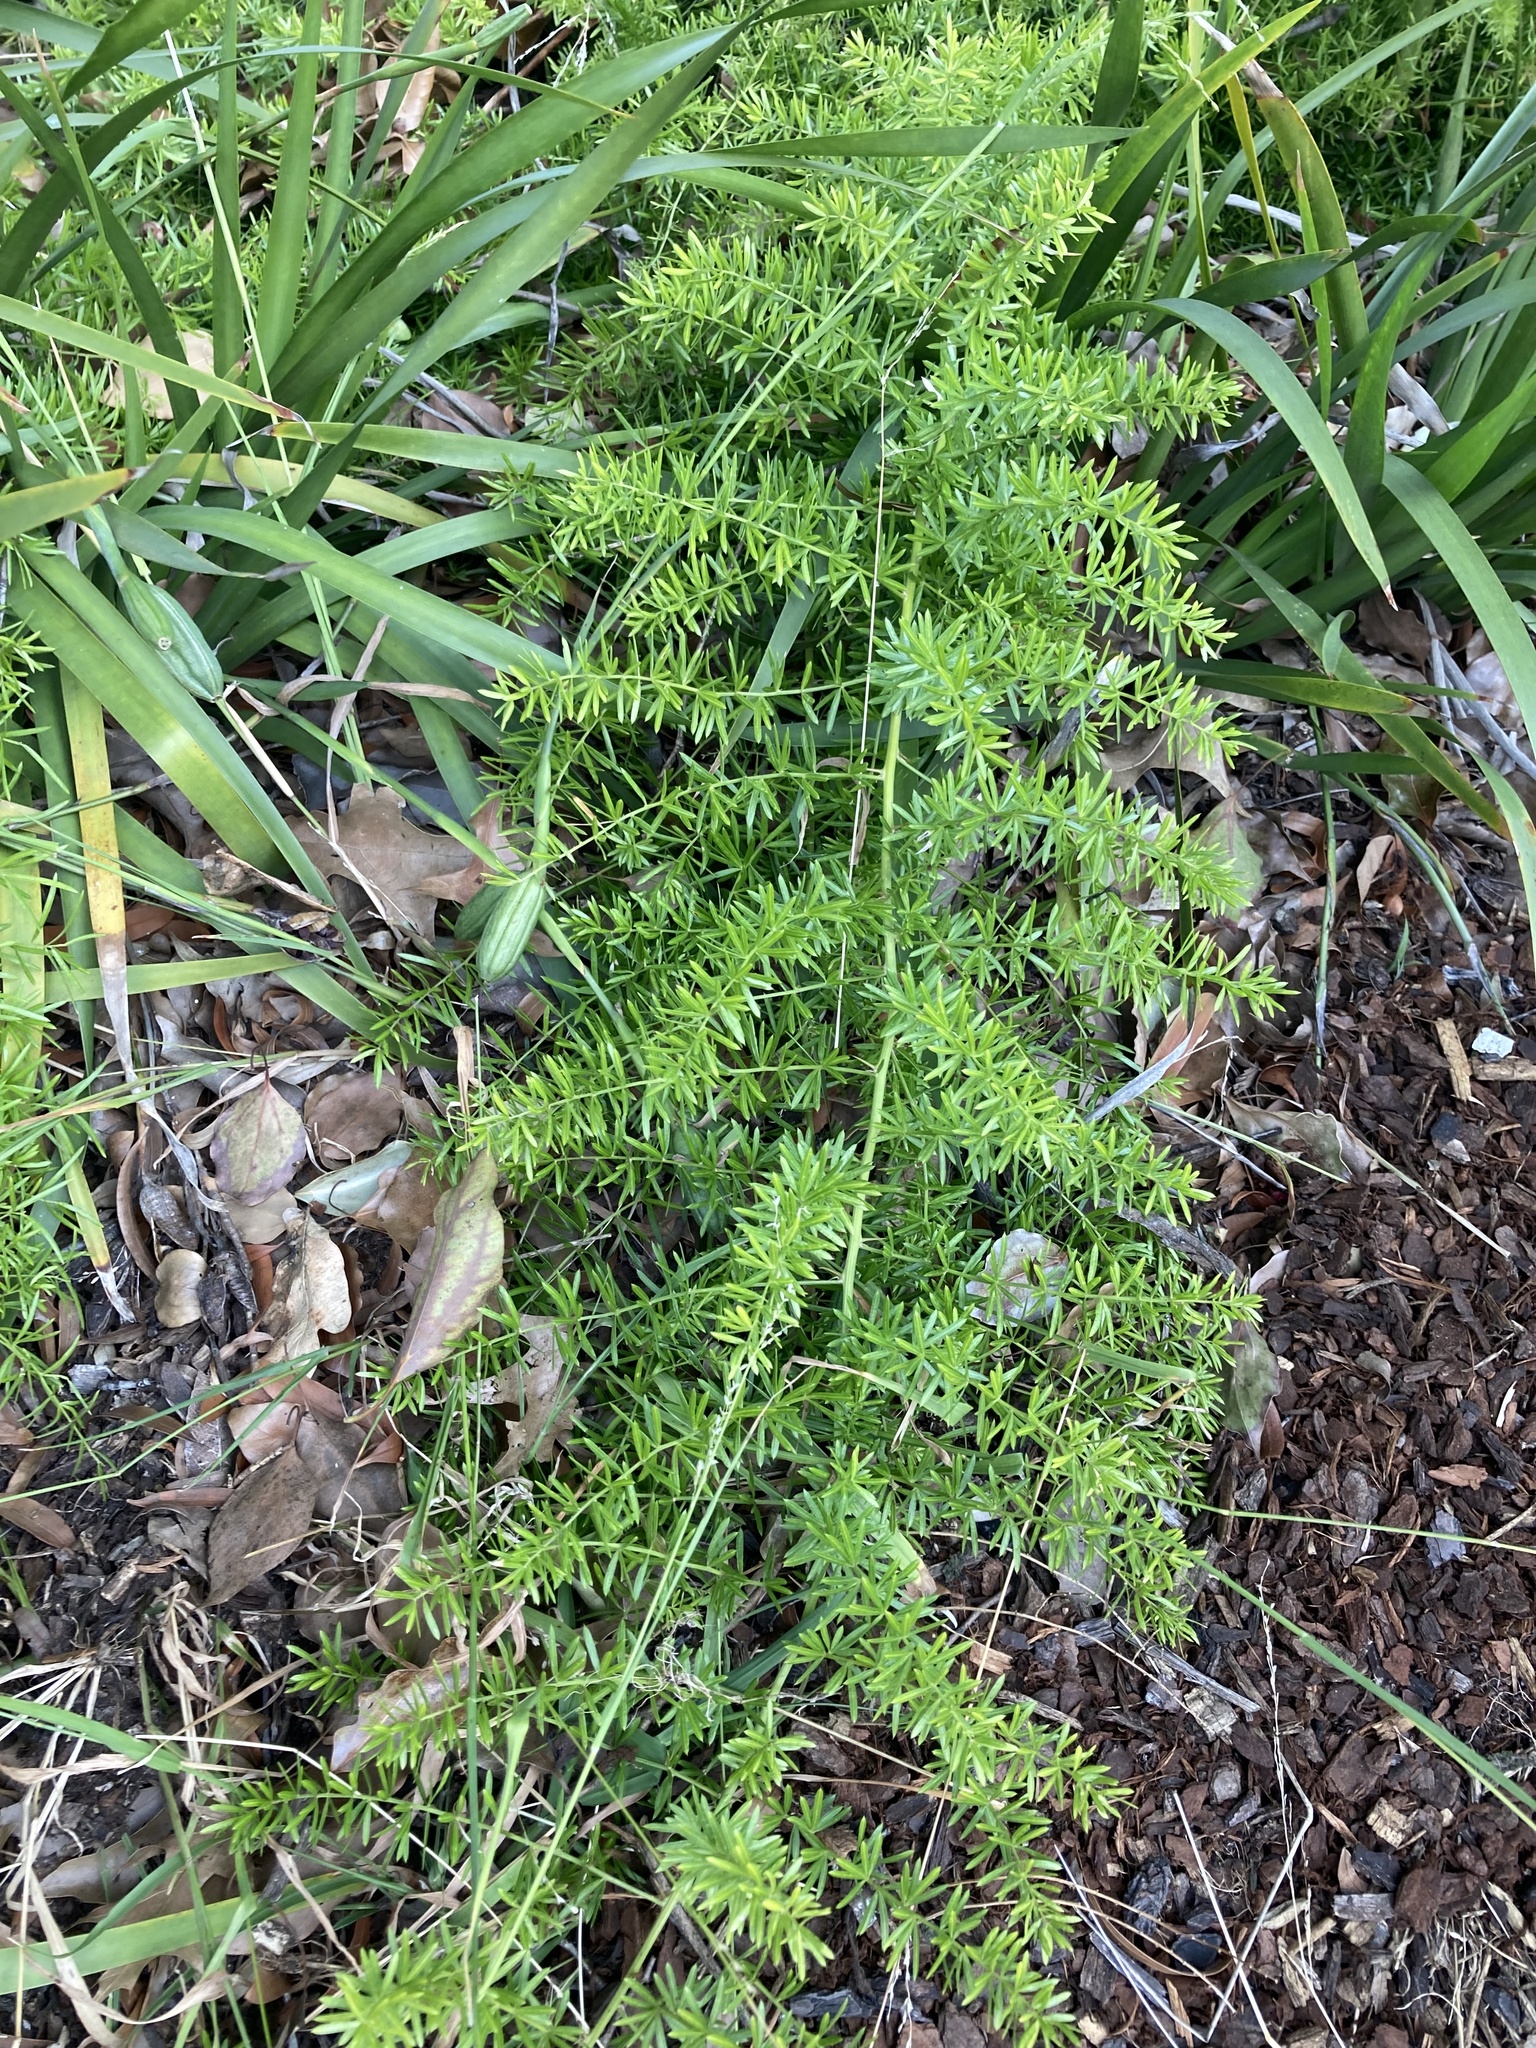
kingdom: Plantae
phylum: Tracheophyta
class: Liliopsida
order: Asparagales
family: Asparagaceae
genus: Asparagus
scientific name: Asparagus aethiopicus
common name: Sprenger's asparagus fern
